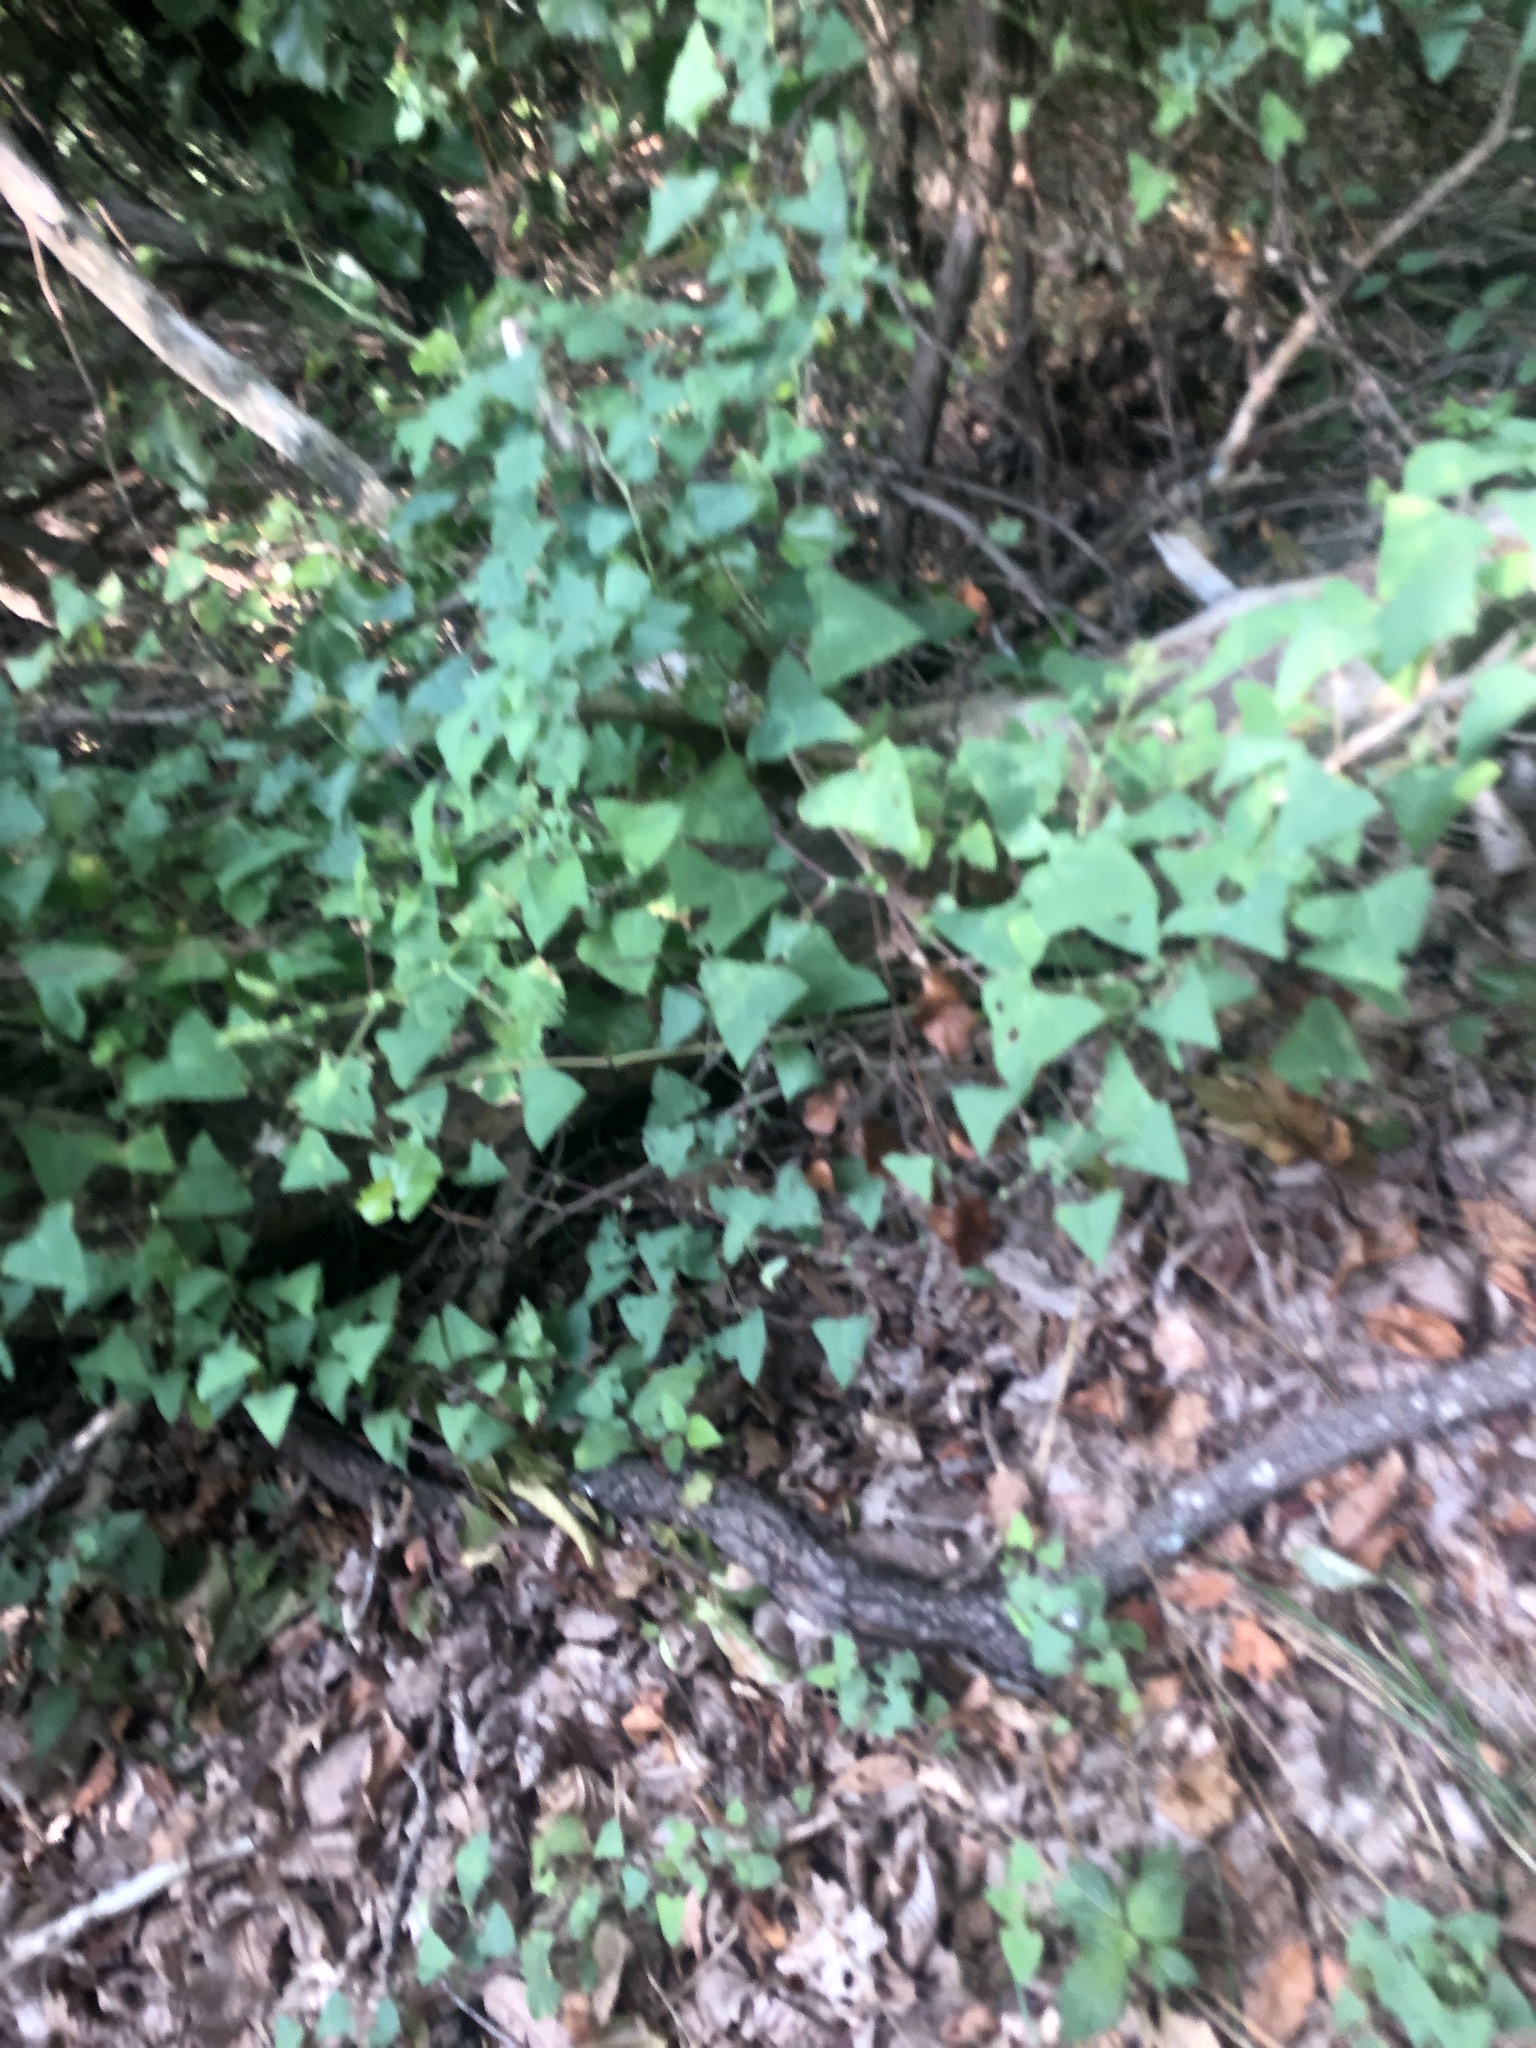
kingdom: Plantae
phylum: Tracheophyta
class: Magnoliopsida
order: Caryophyllales
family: Polygonaceae
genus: Persicaria
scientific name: Persicaria perfoliata
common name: Asiatic tearthumb
